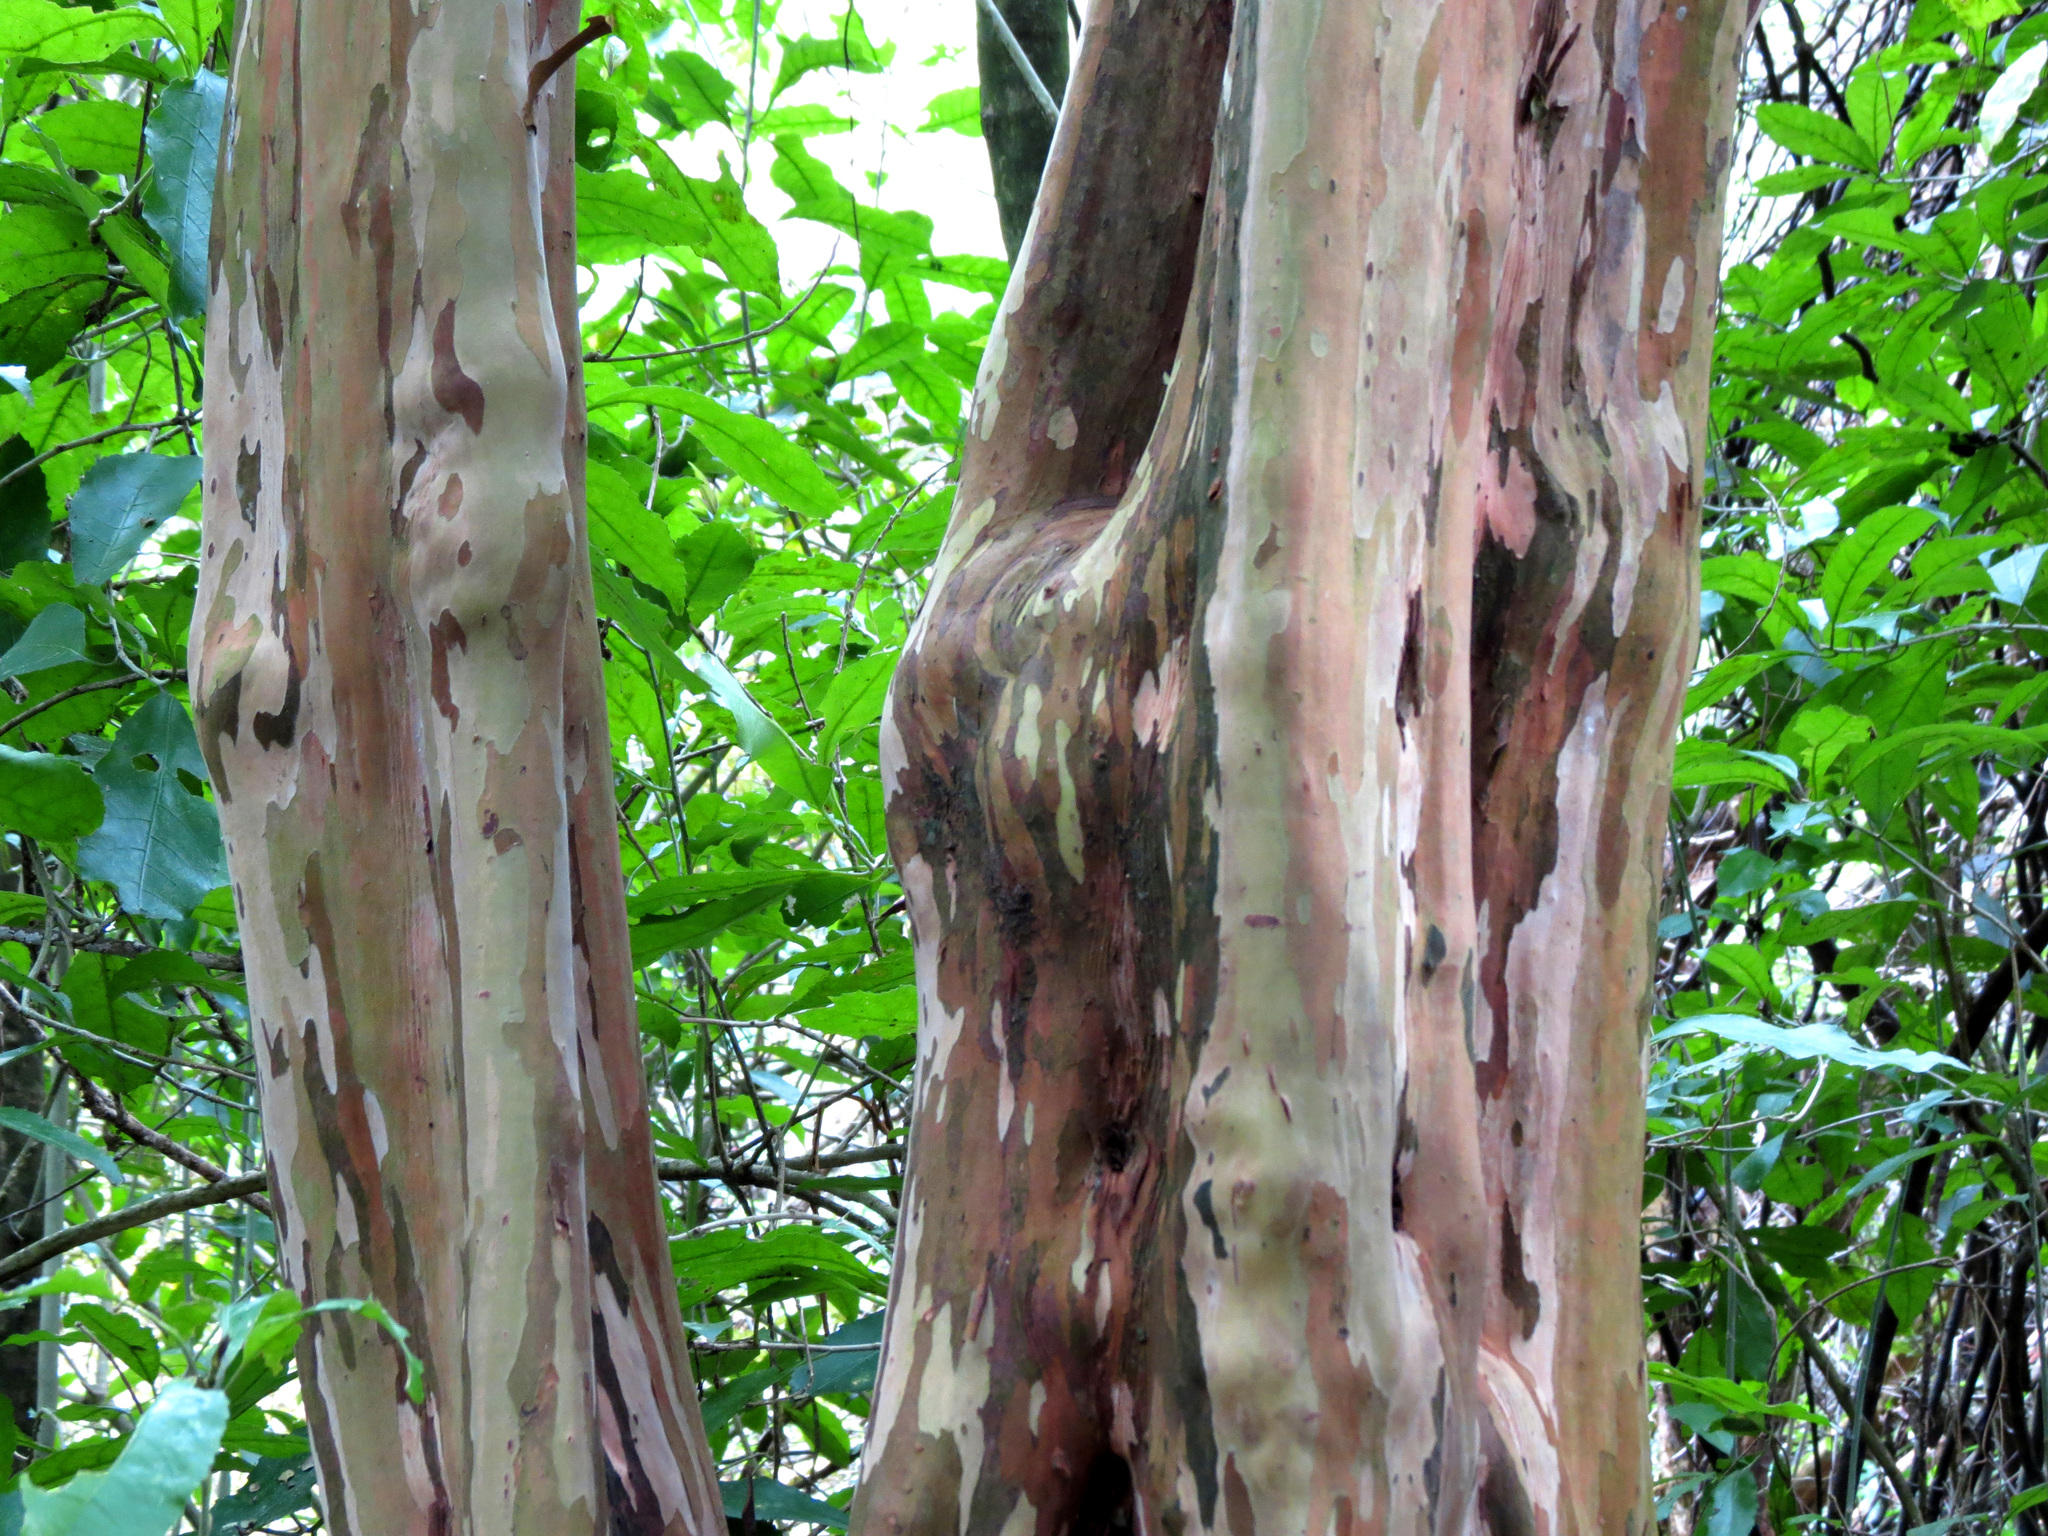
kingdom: Plantae
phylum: Tracheophyta
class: Magnoliopsida
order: Myrtales
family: Myrtaceae
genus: Lophomyrtus
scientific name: Lophomyrtus obcordata
